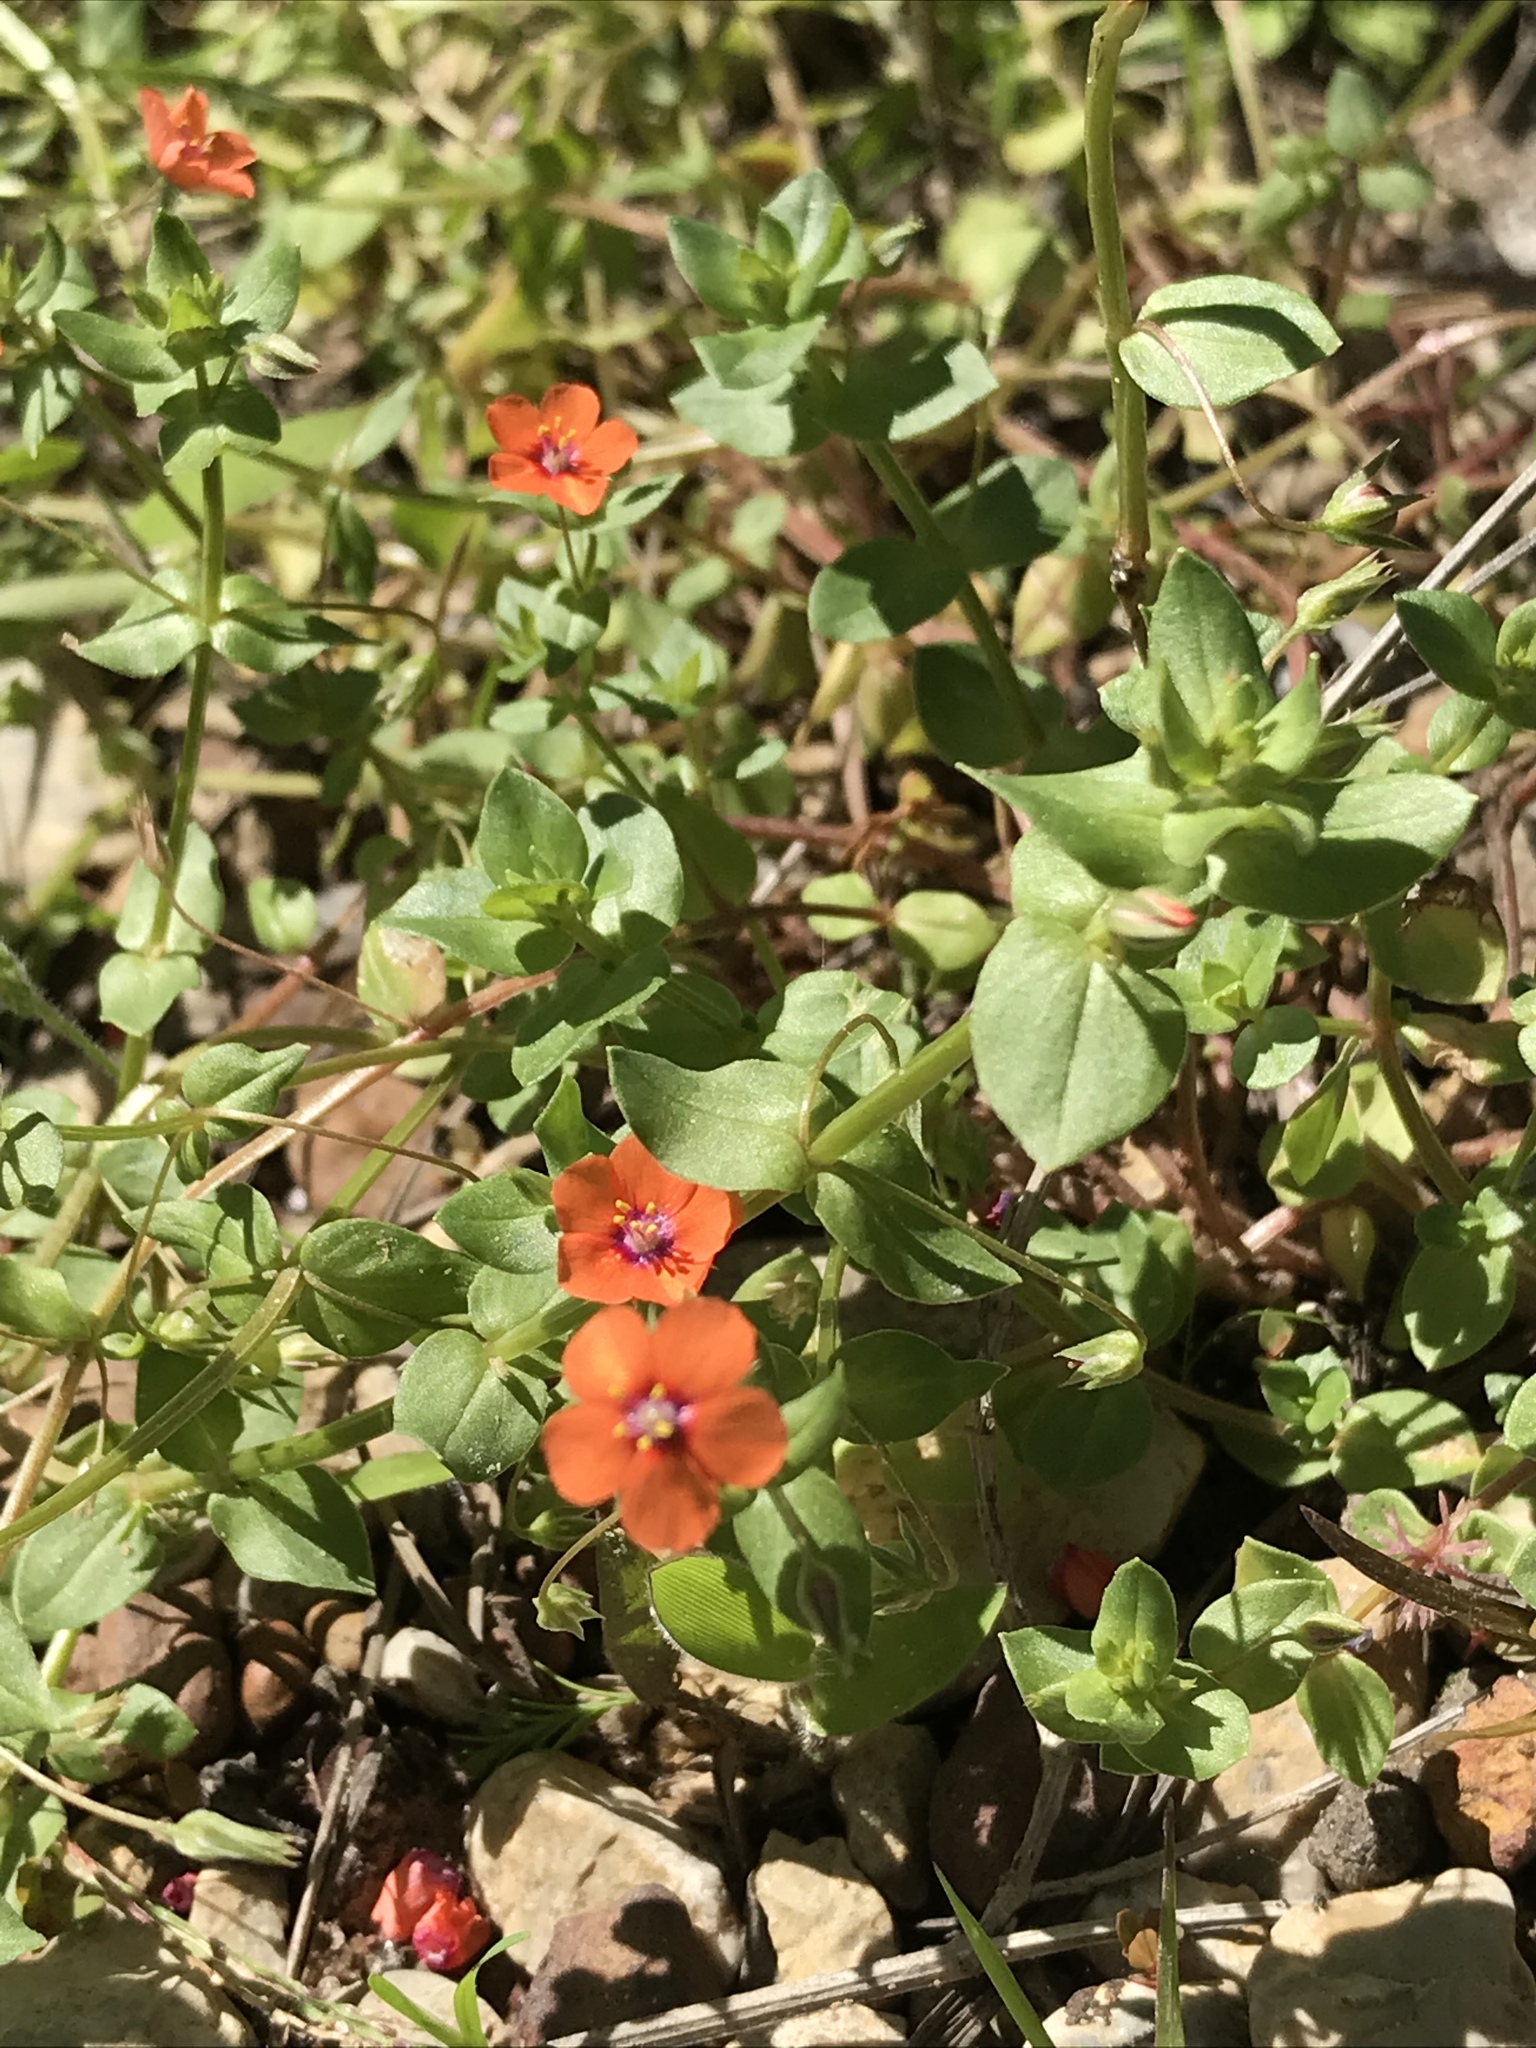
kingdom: Plantae
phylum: Tracheophyta
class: Magnoliopsida
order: Ericales
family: Primulaceae
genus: Lysimachia
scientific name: Lysimachia arvensis
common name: Scarlet pimpernel
